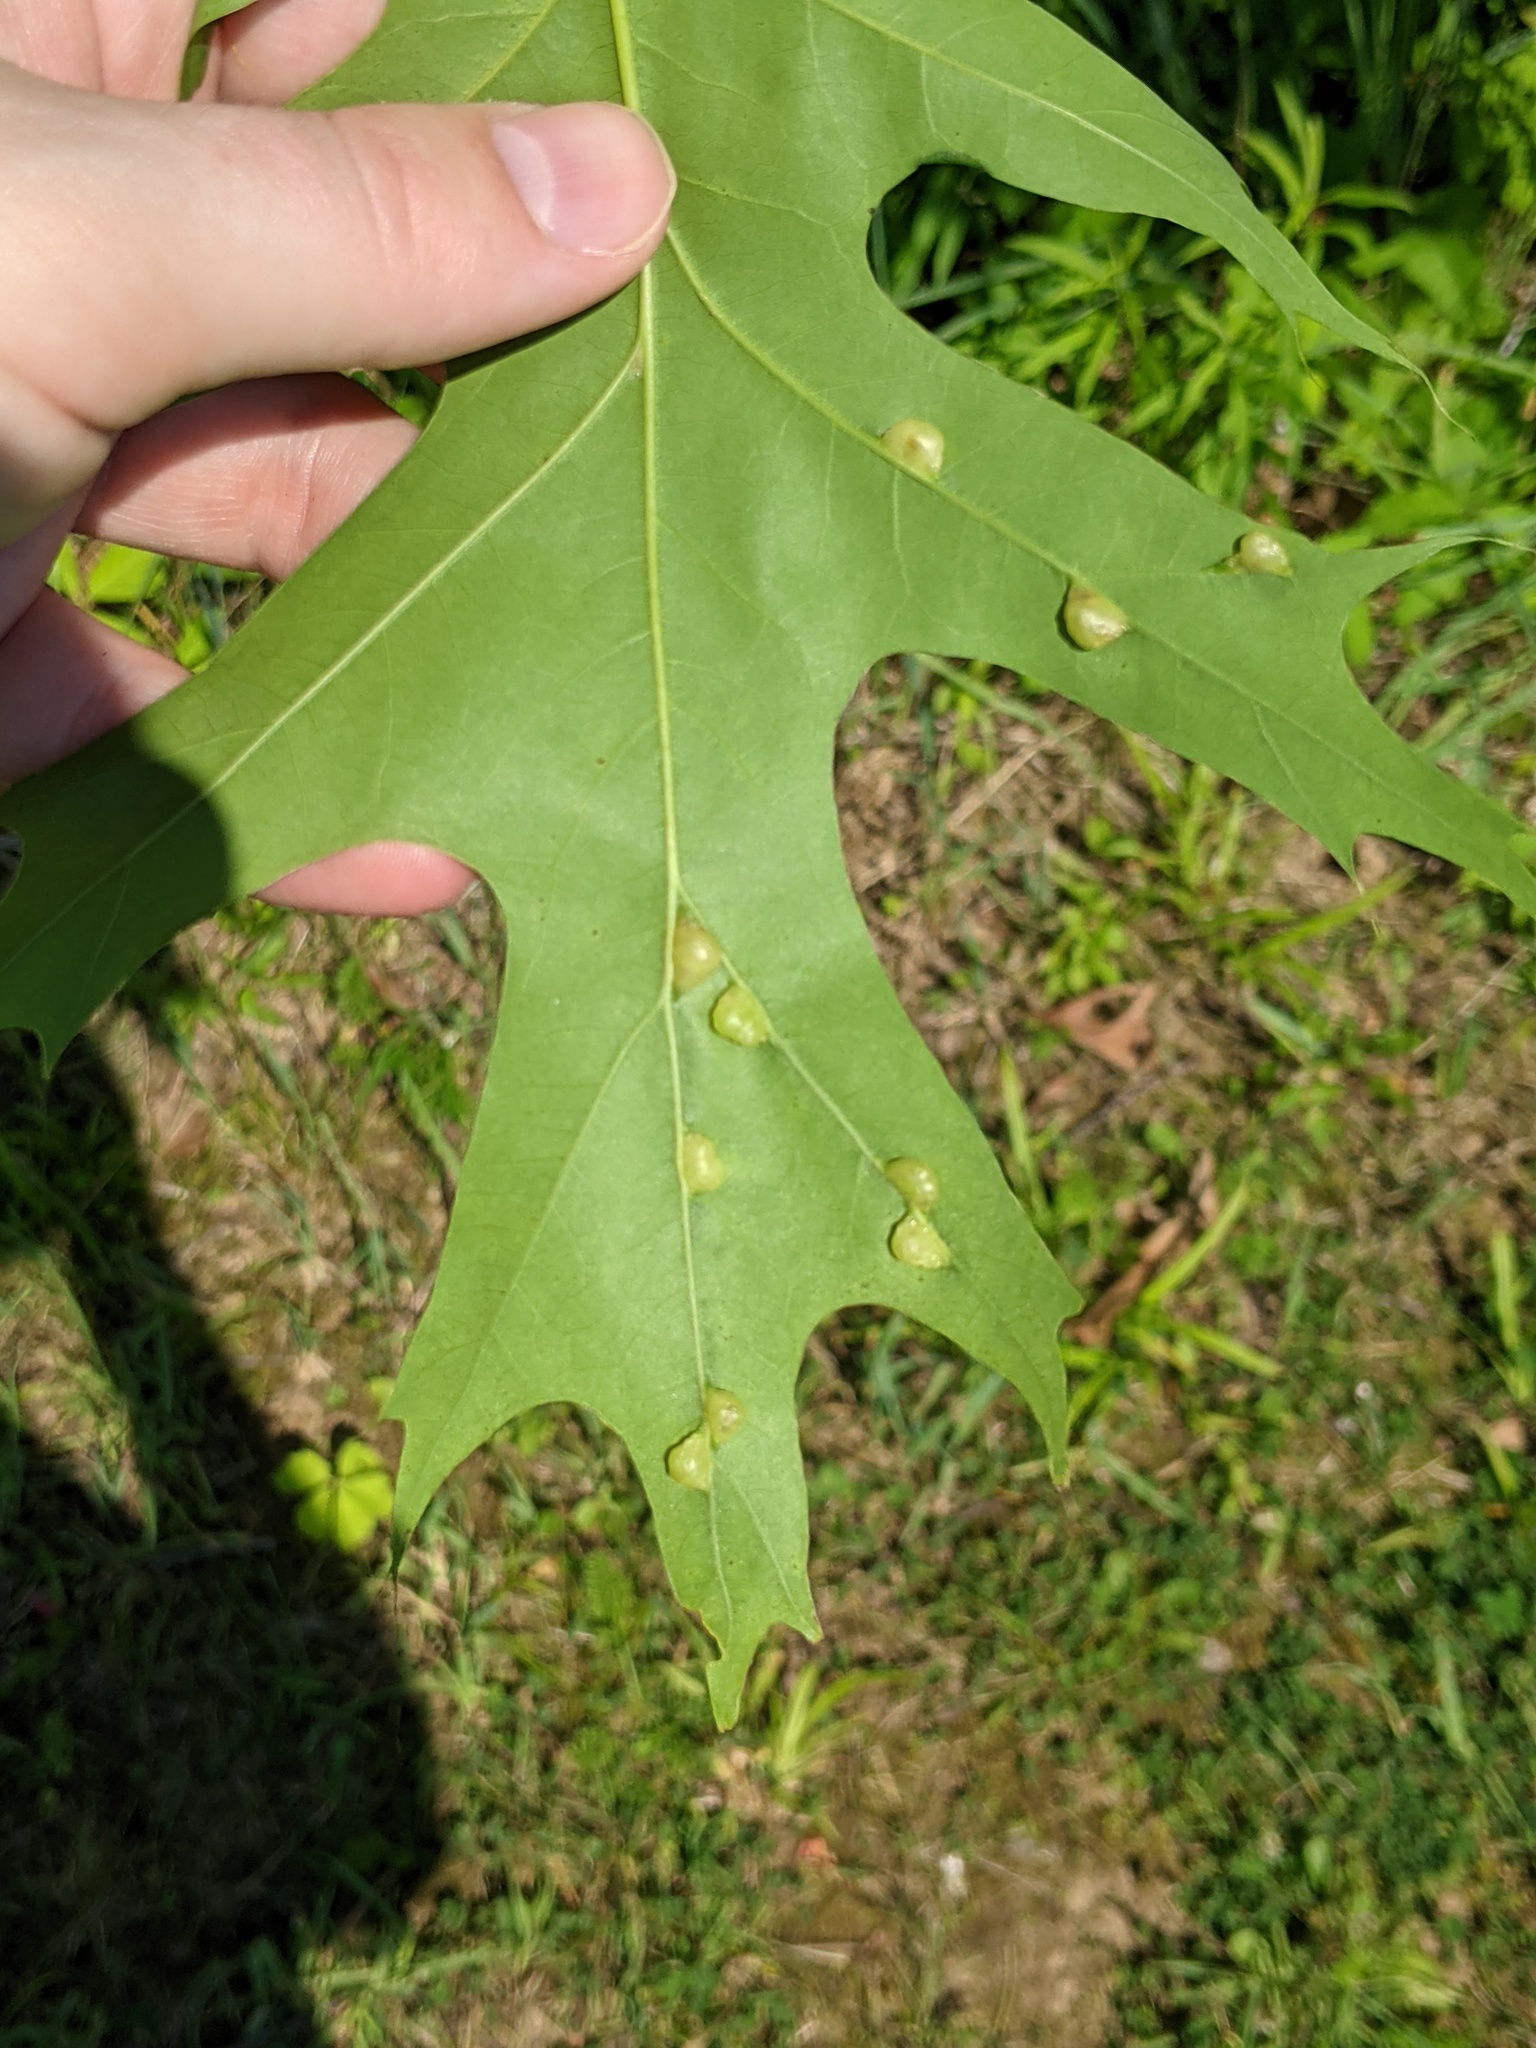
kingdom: Plantae
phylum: Tracheophyta
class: Magnoliopsida
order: Fagales
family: Fagaceae
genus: Quercus
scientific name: Quercus palustris
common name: Pin oak
